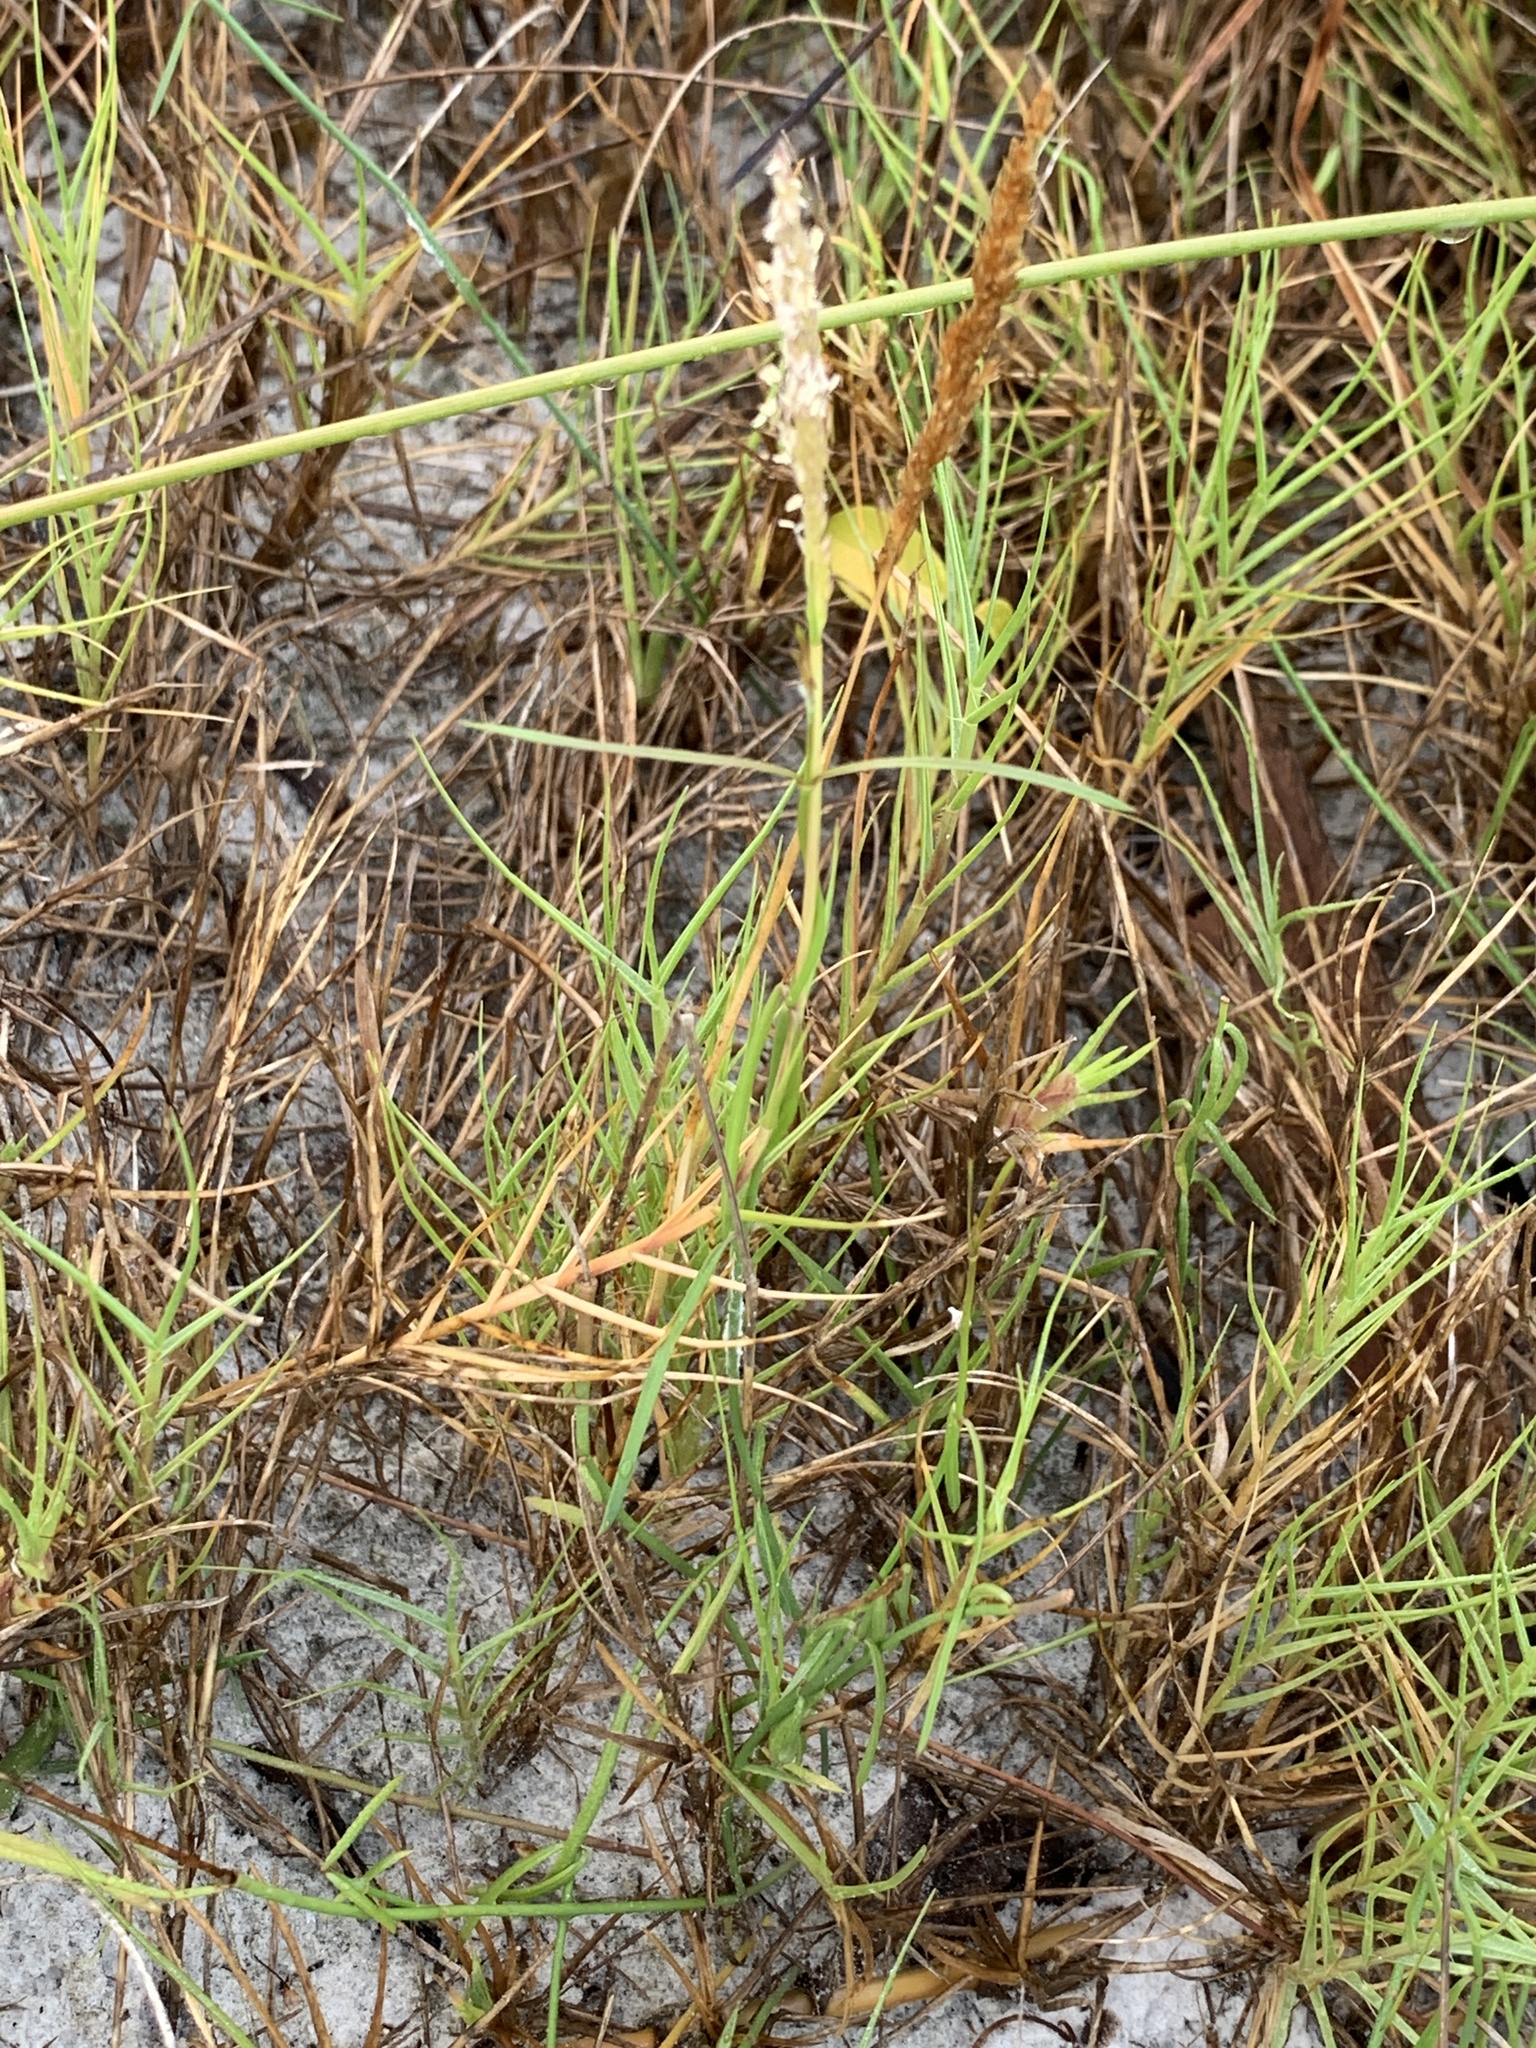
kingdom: Plantae
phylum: Tracheophyta
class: Liliopsida
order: Poales
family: Poaceae
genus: Sporobolus
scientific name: Sporobolus virginicus
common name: Beach dropseed
